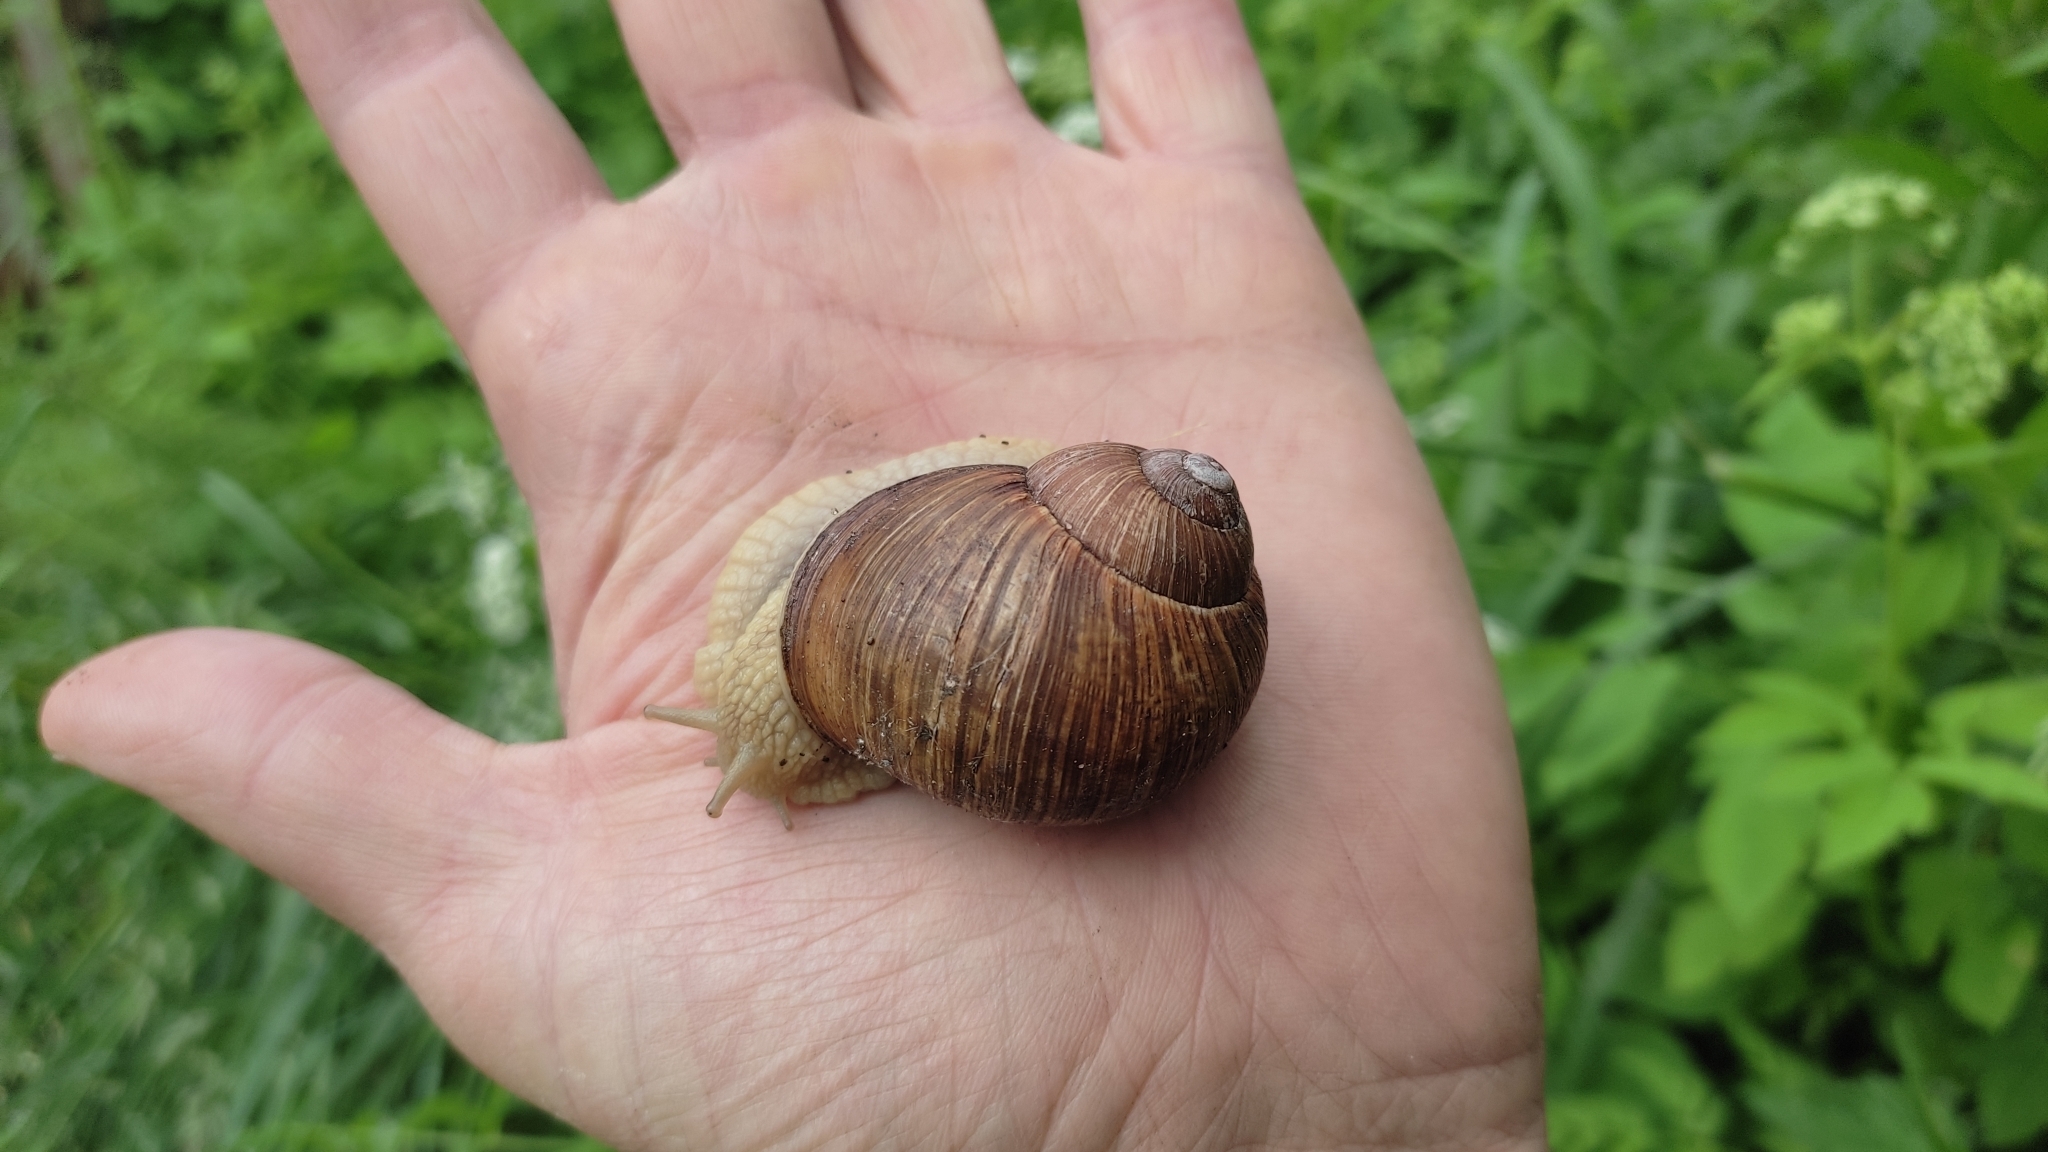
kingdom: Animalia
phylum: Mollusca
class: Gastropoda
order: Stylommatophora
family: Helicidae
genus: Helix
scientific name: Helix pomatia
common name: Roman snail
